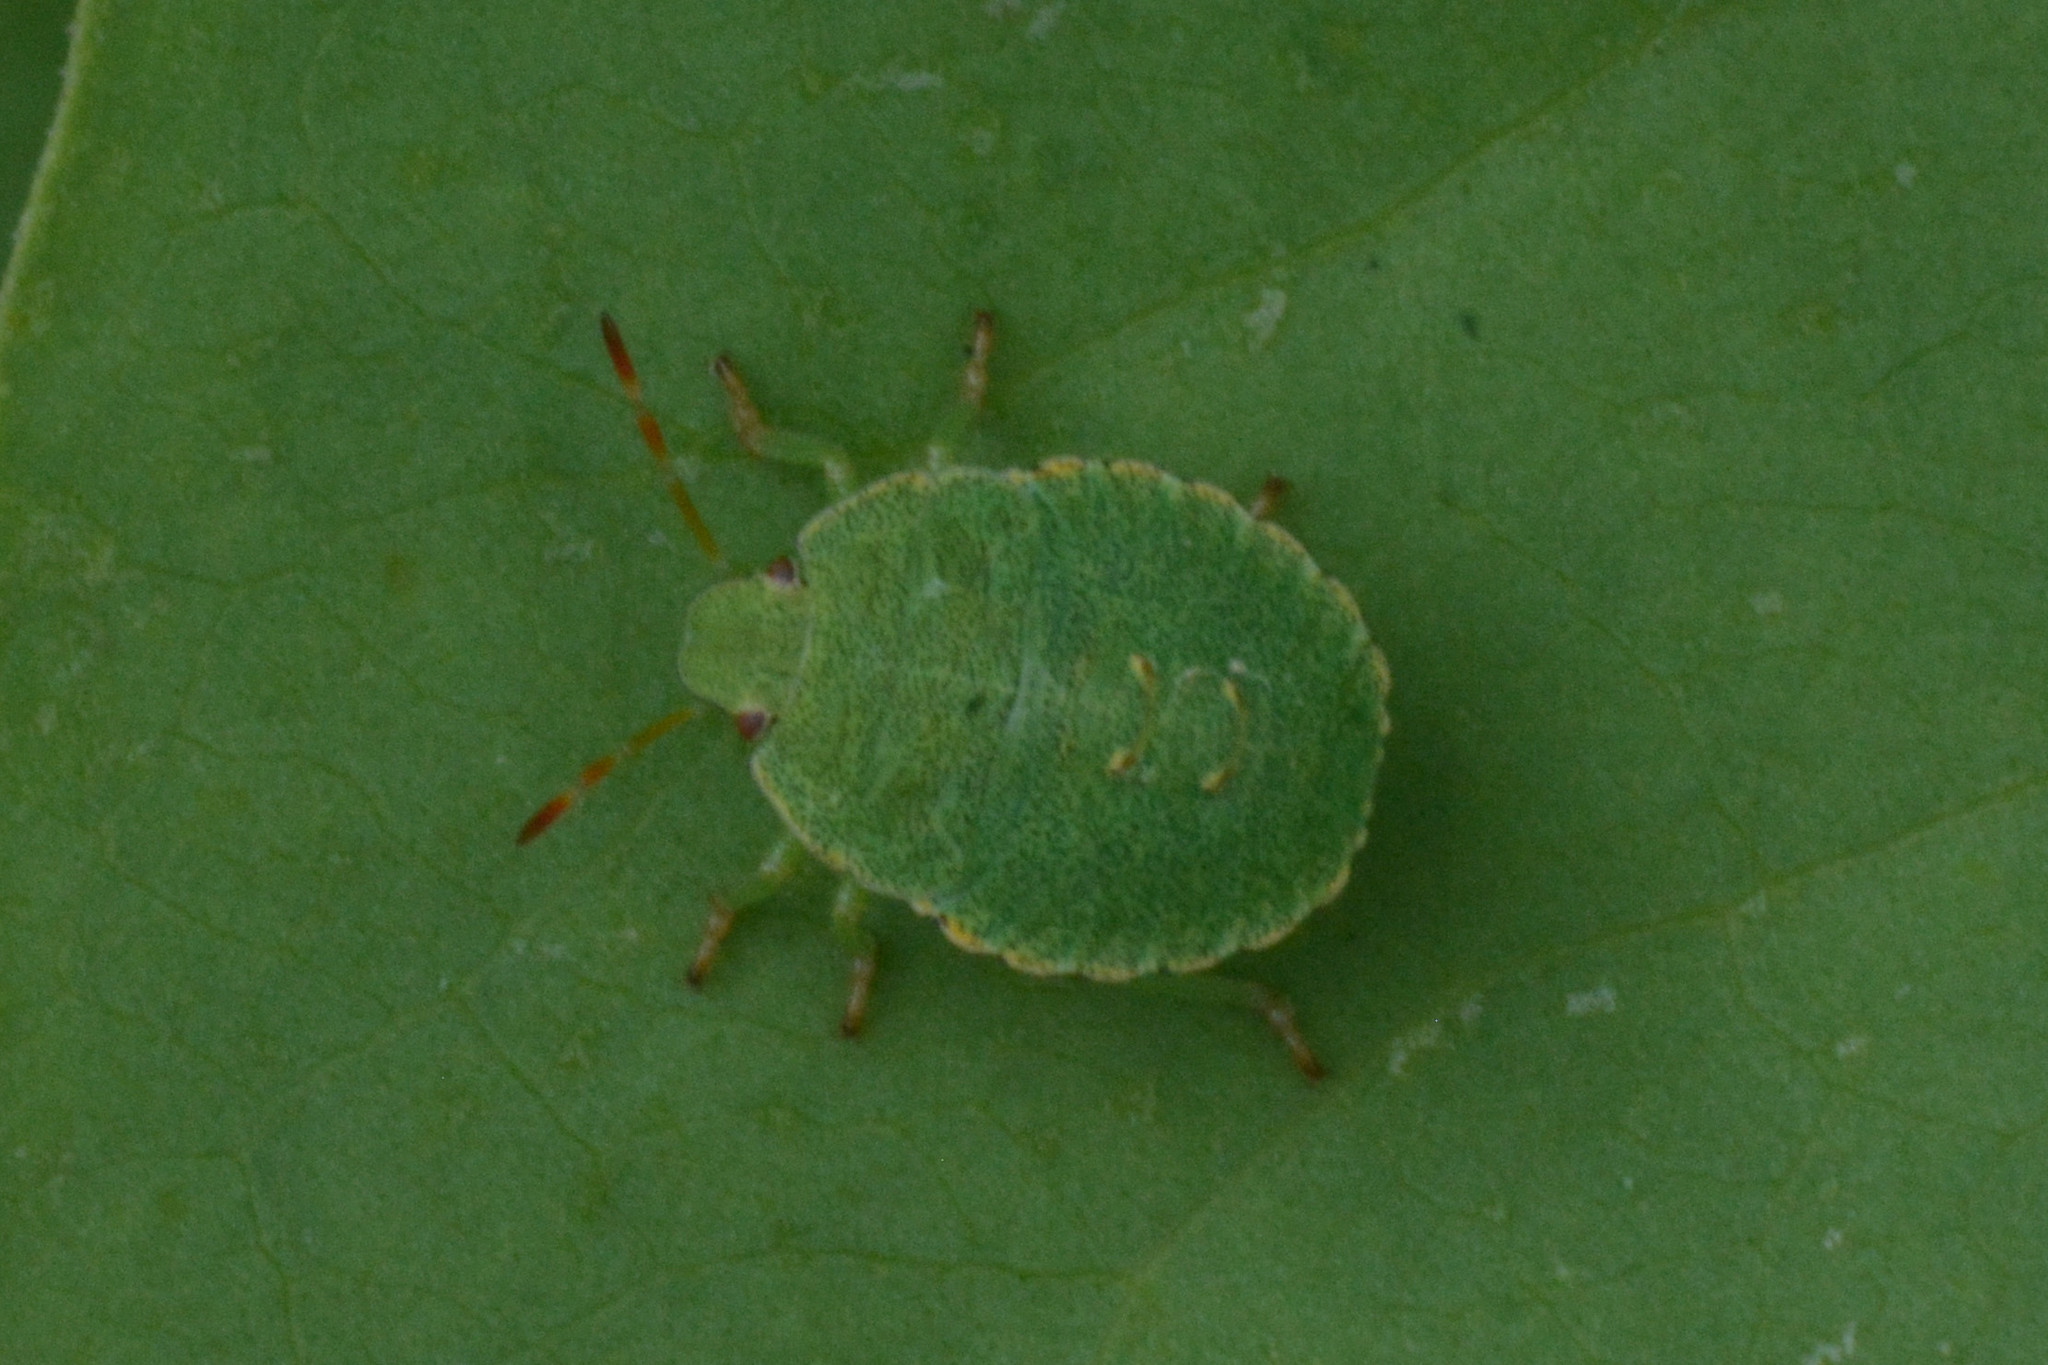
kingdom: Animalia
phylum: Arthropoda
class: Insecta
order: Hemiptera
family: Pentatomidae
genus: Palomena
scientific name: Palomena prasina
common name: Green shieldbug
